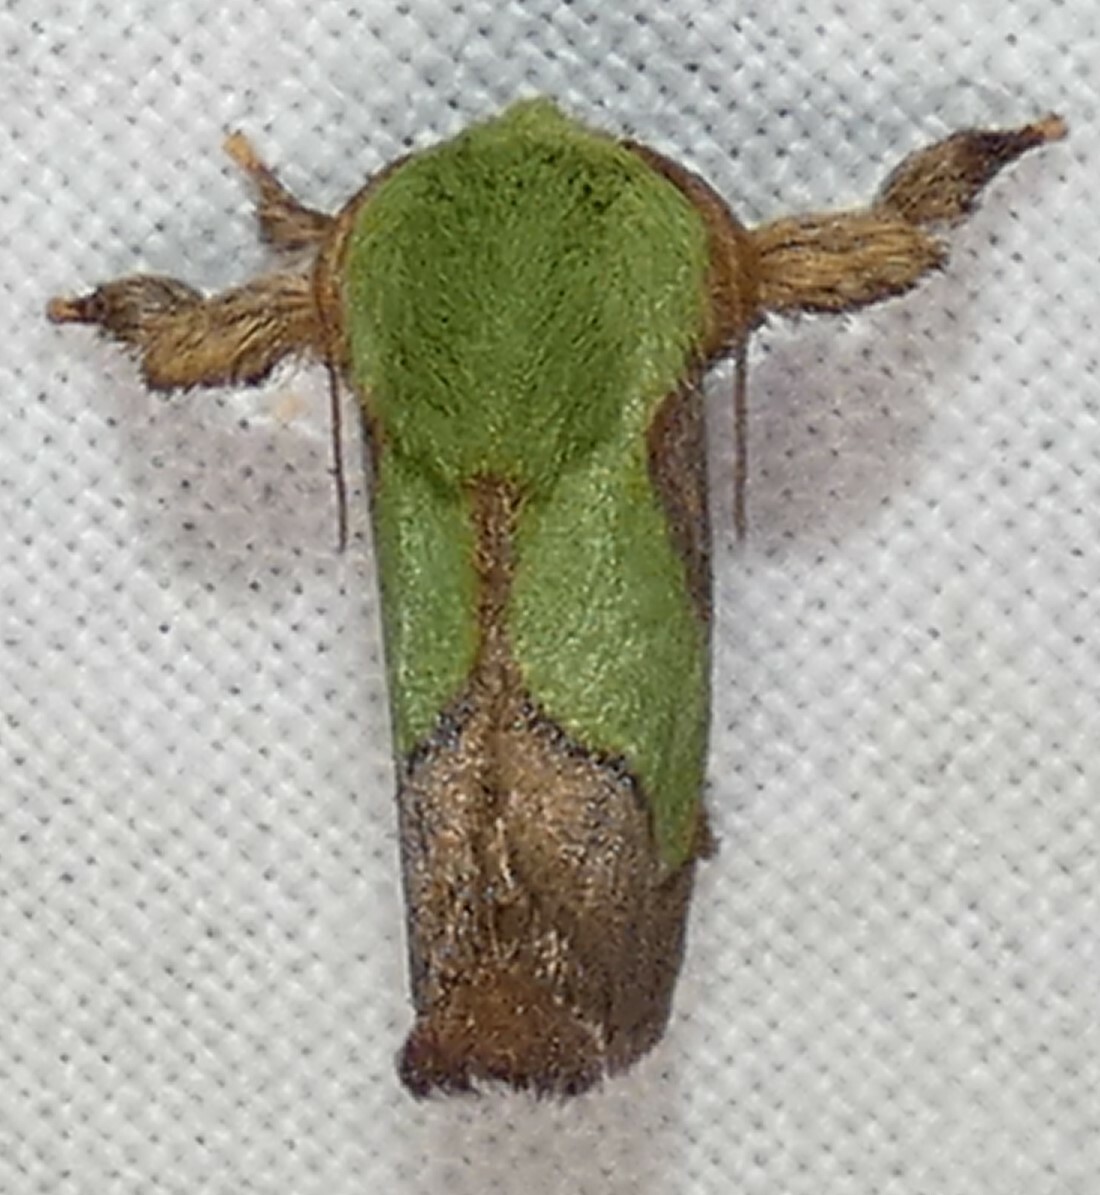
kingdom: Animalia
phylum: Arthropoda
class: Insecta
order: Lepidoptera
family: Limacodidae
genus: Parasa
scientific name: Parasa chloris
